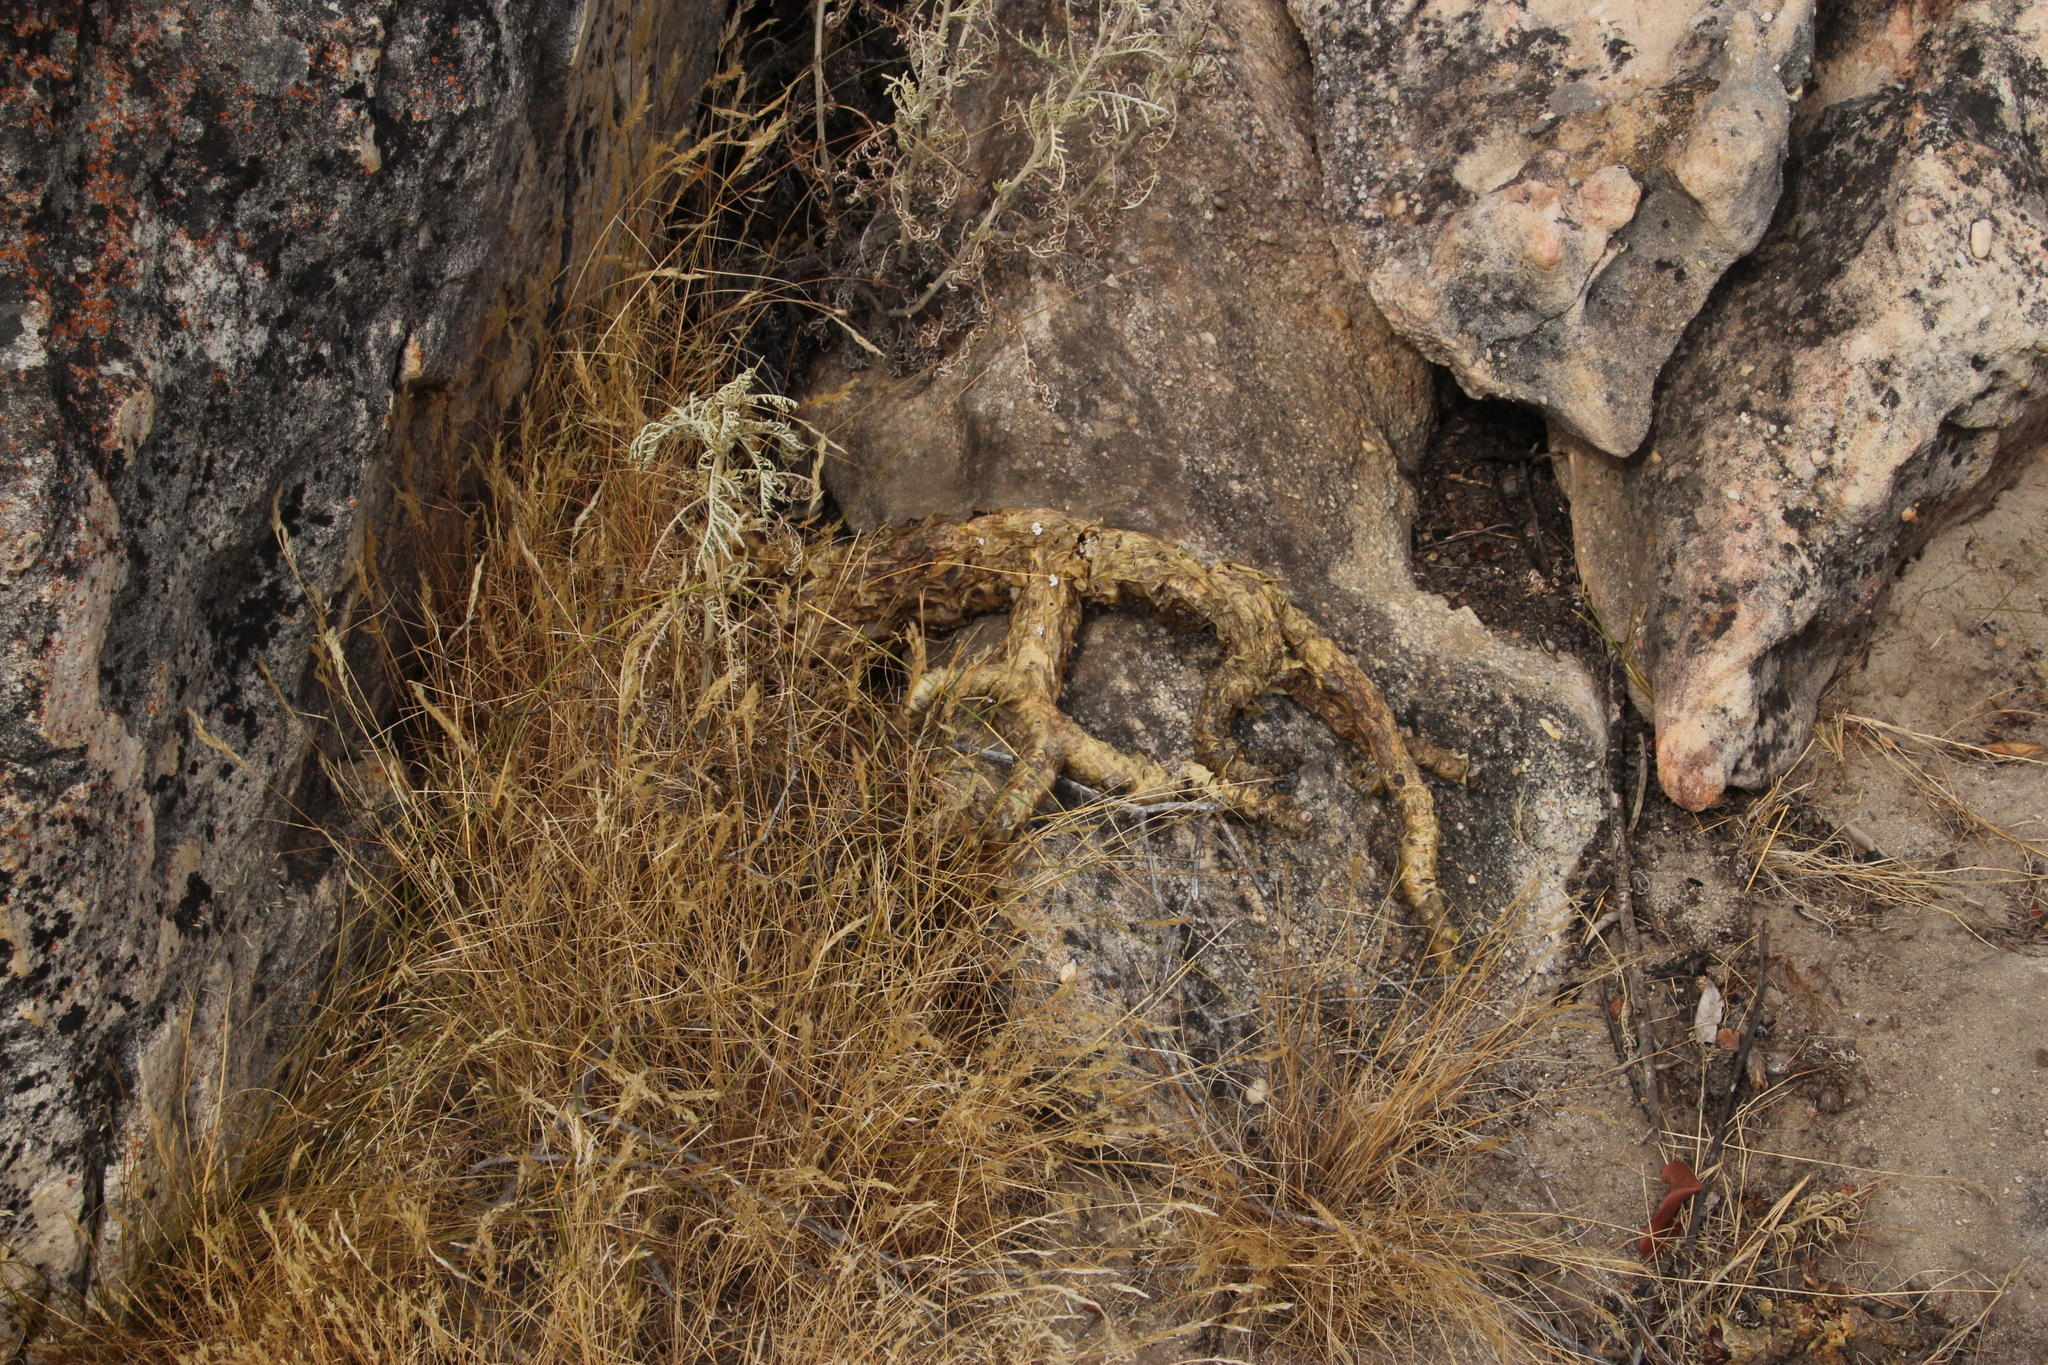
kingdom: Plantae
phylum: Tracheophyta
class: Magnoliopsida
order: Saxifragales
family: Crassulaceae
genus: Tylecodon
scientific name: Tylecodon paniculatus
